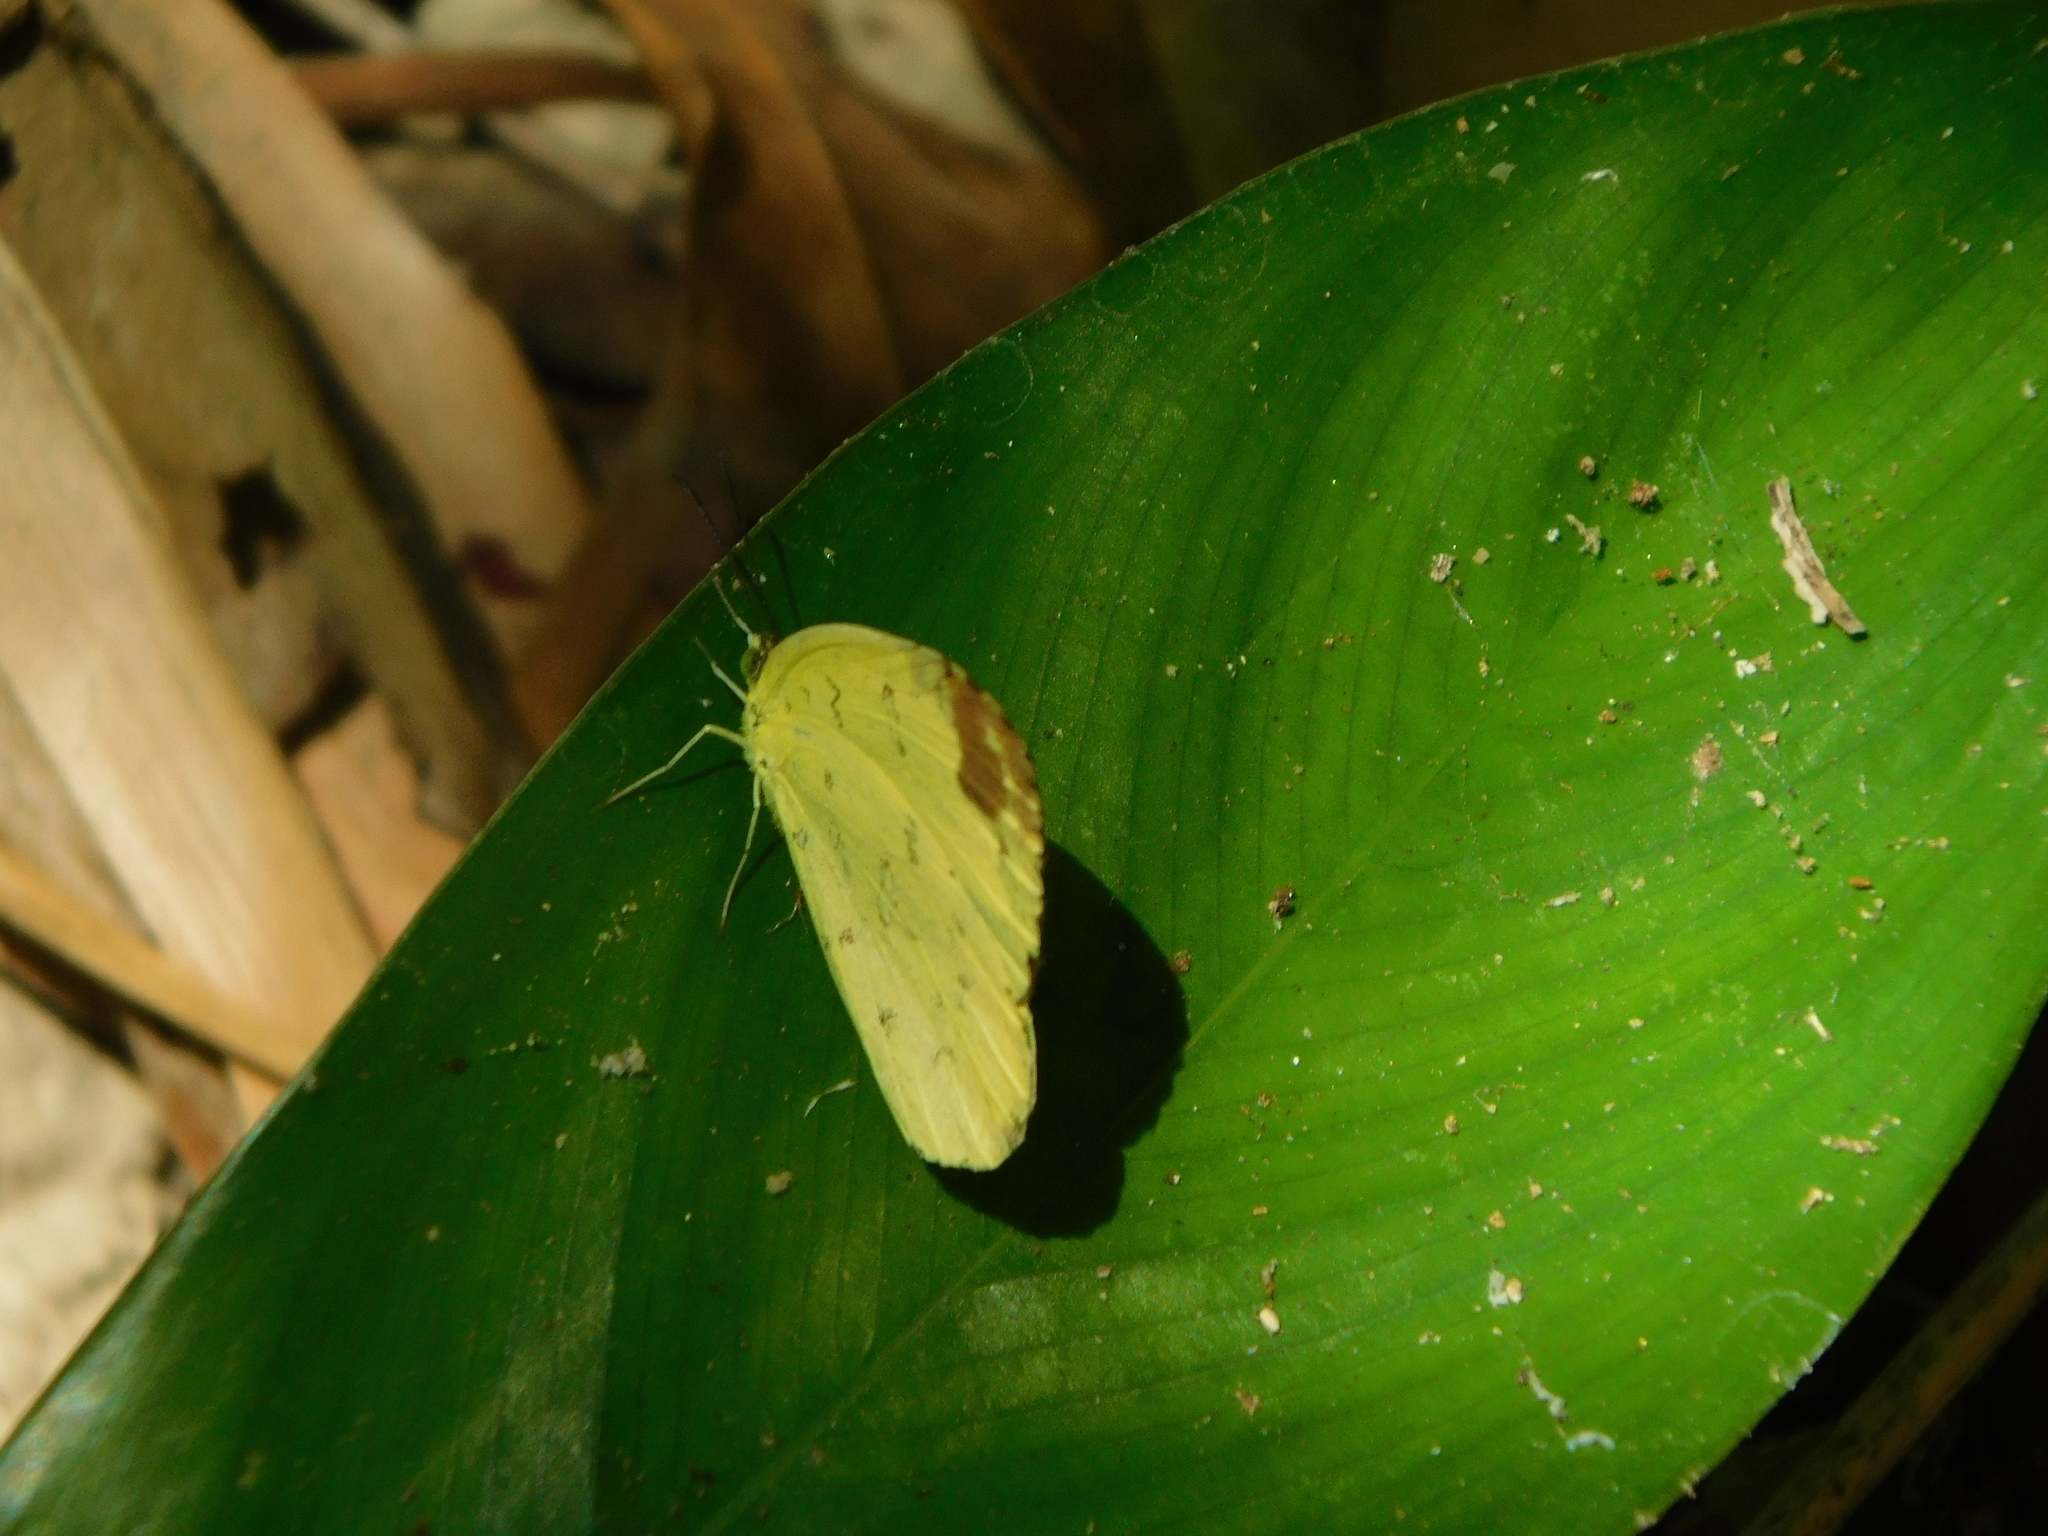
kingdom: Animalia
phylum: Arthropoda
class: Insecta
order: Lepidoptera
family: Pieridae
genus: Eurema
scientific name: Eurema blanda
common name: Three-spot grass yellow
